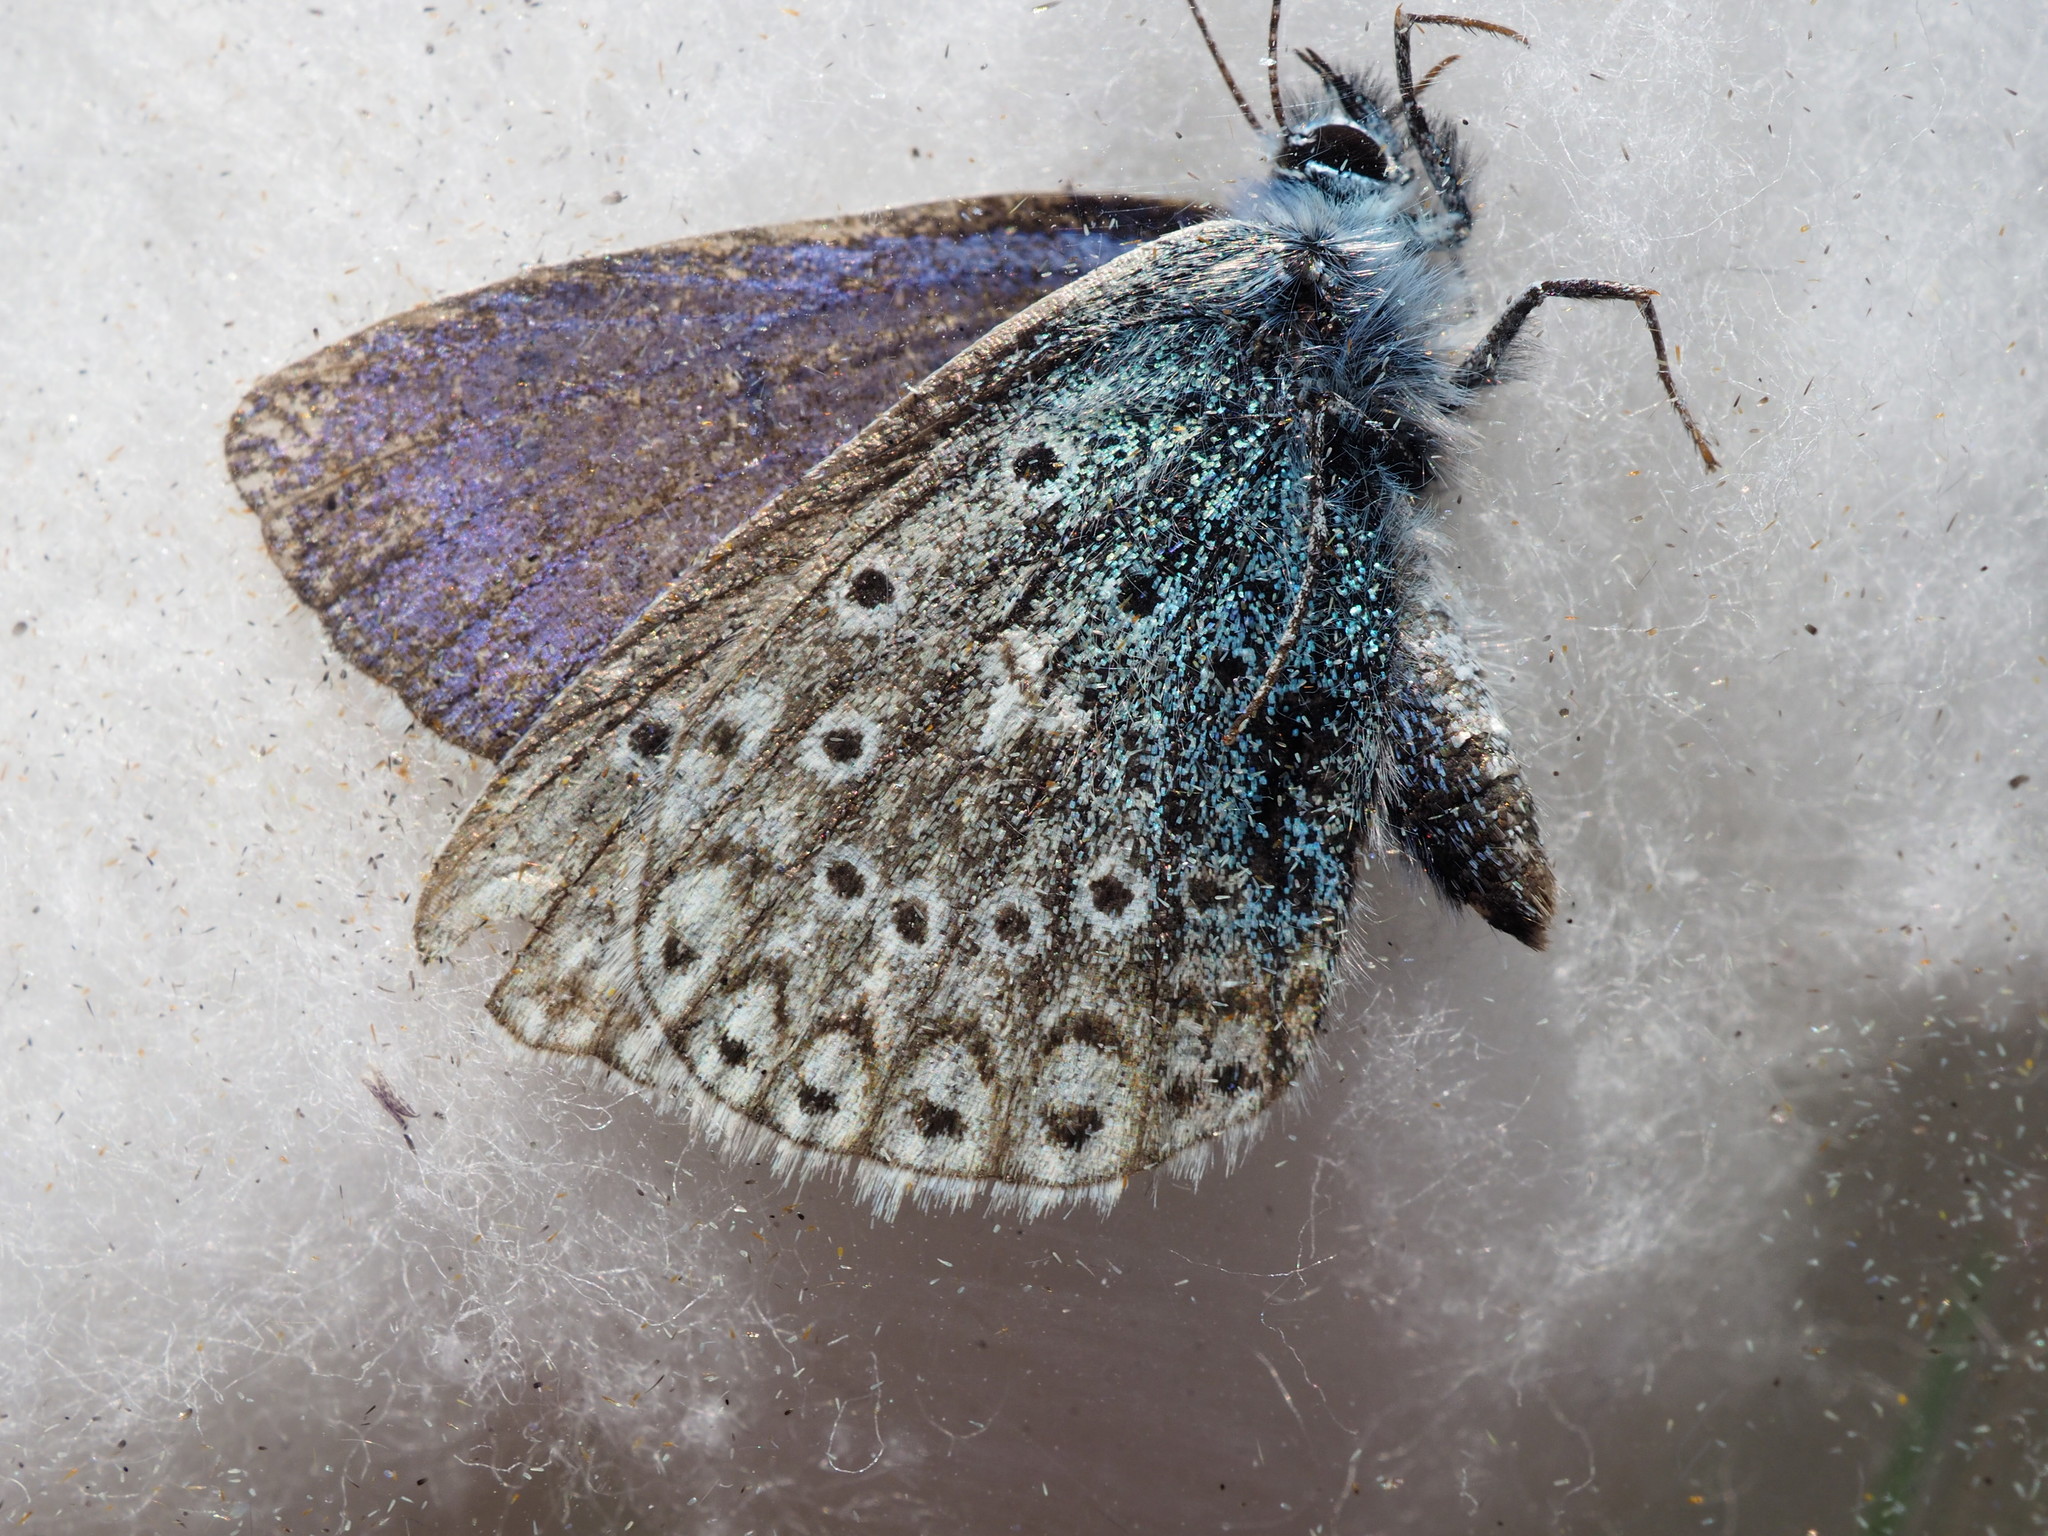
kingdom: Animalia
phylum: Arthropoda
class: Insecta
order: Lepidoptera
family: Lycaenidae
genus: Polyommatus
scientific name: Polyommatus icarus
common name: Common blue
